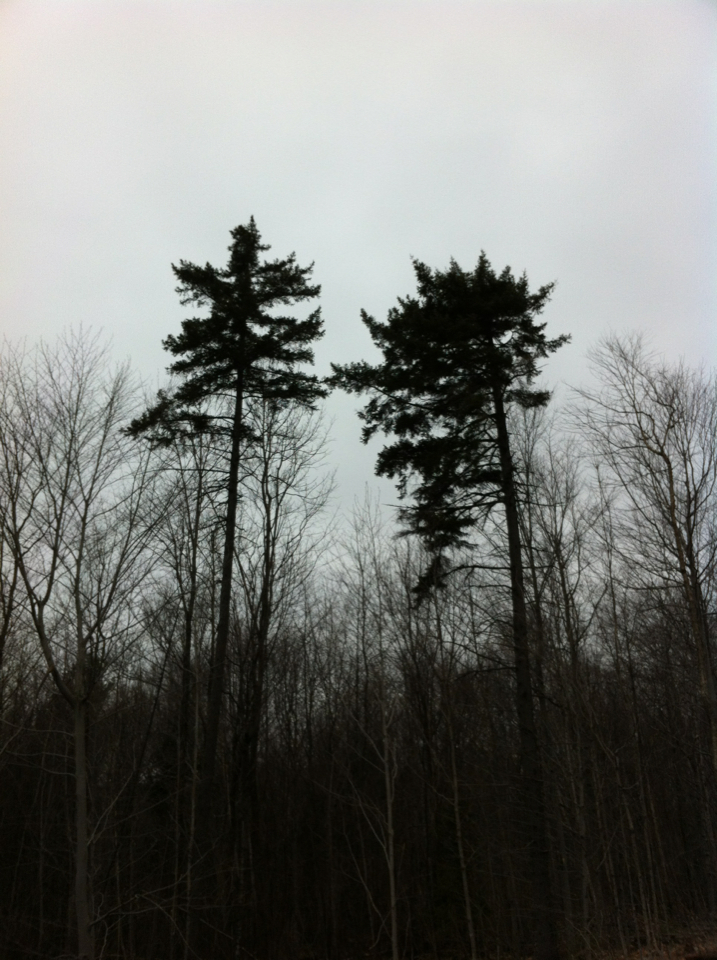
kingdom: Plantae
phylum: Tracheophyta
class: Pinopsida
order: Pinales
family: Pinaceae
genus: Picea
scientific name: Picea rubens
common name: Red spruce
